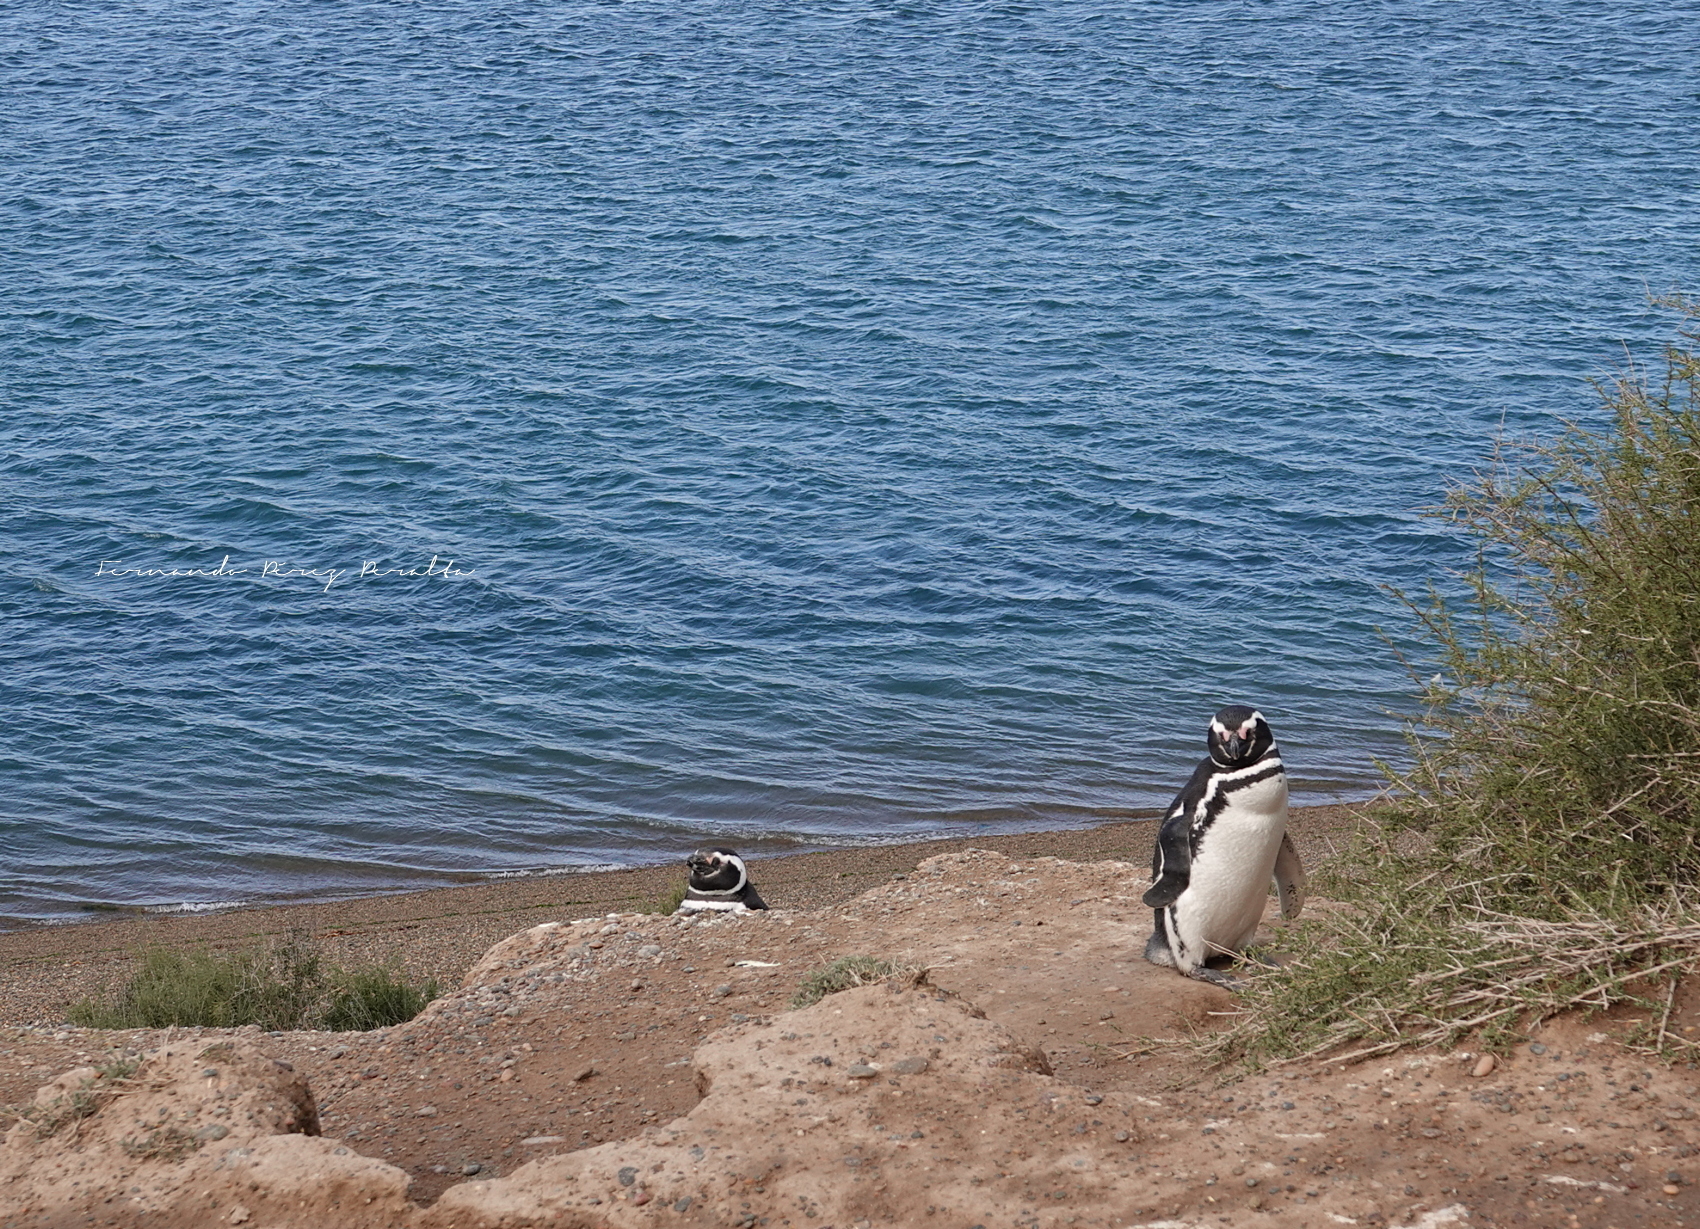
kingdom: Animalia
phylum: Chordata
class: Aves
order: Sphenisciformes
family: Spheniscidae
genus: Spheniscus
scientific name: Spheniscus magellanicus
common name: Magellanic penguin
